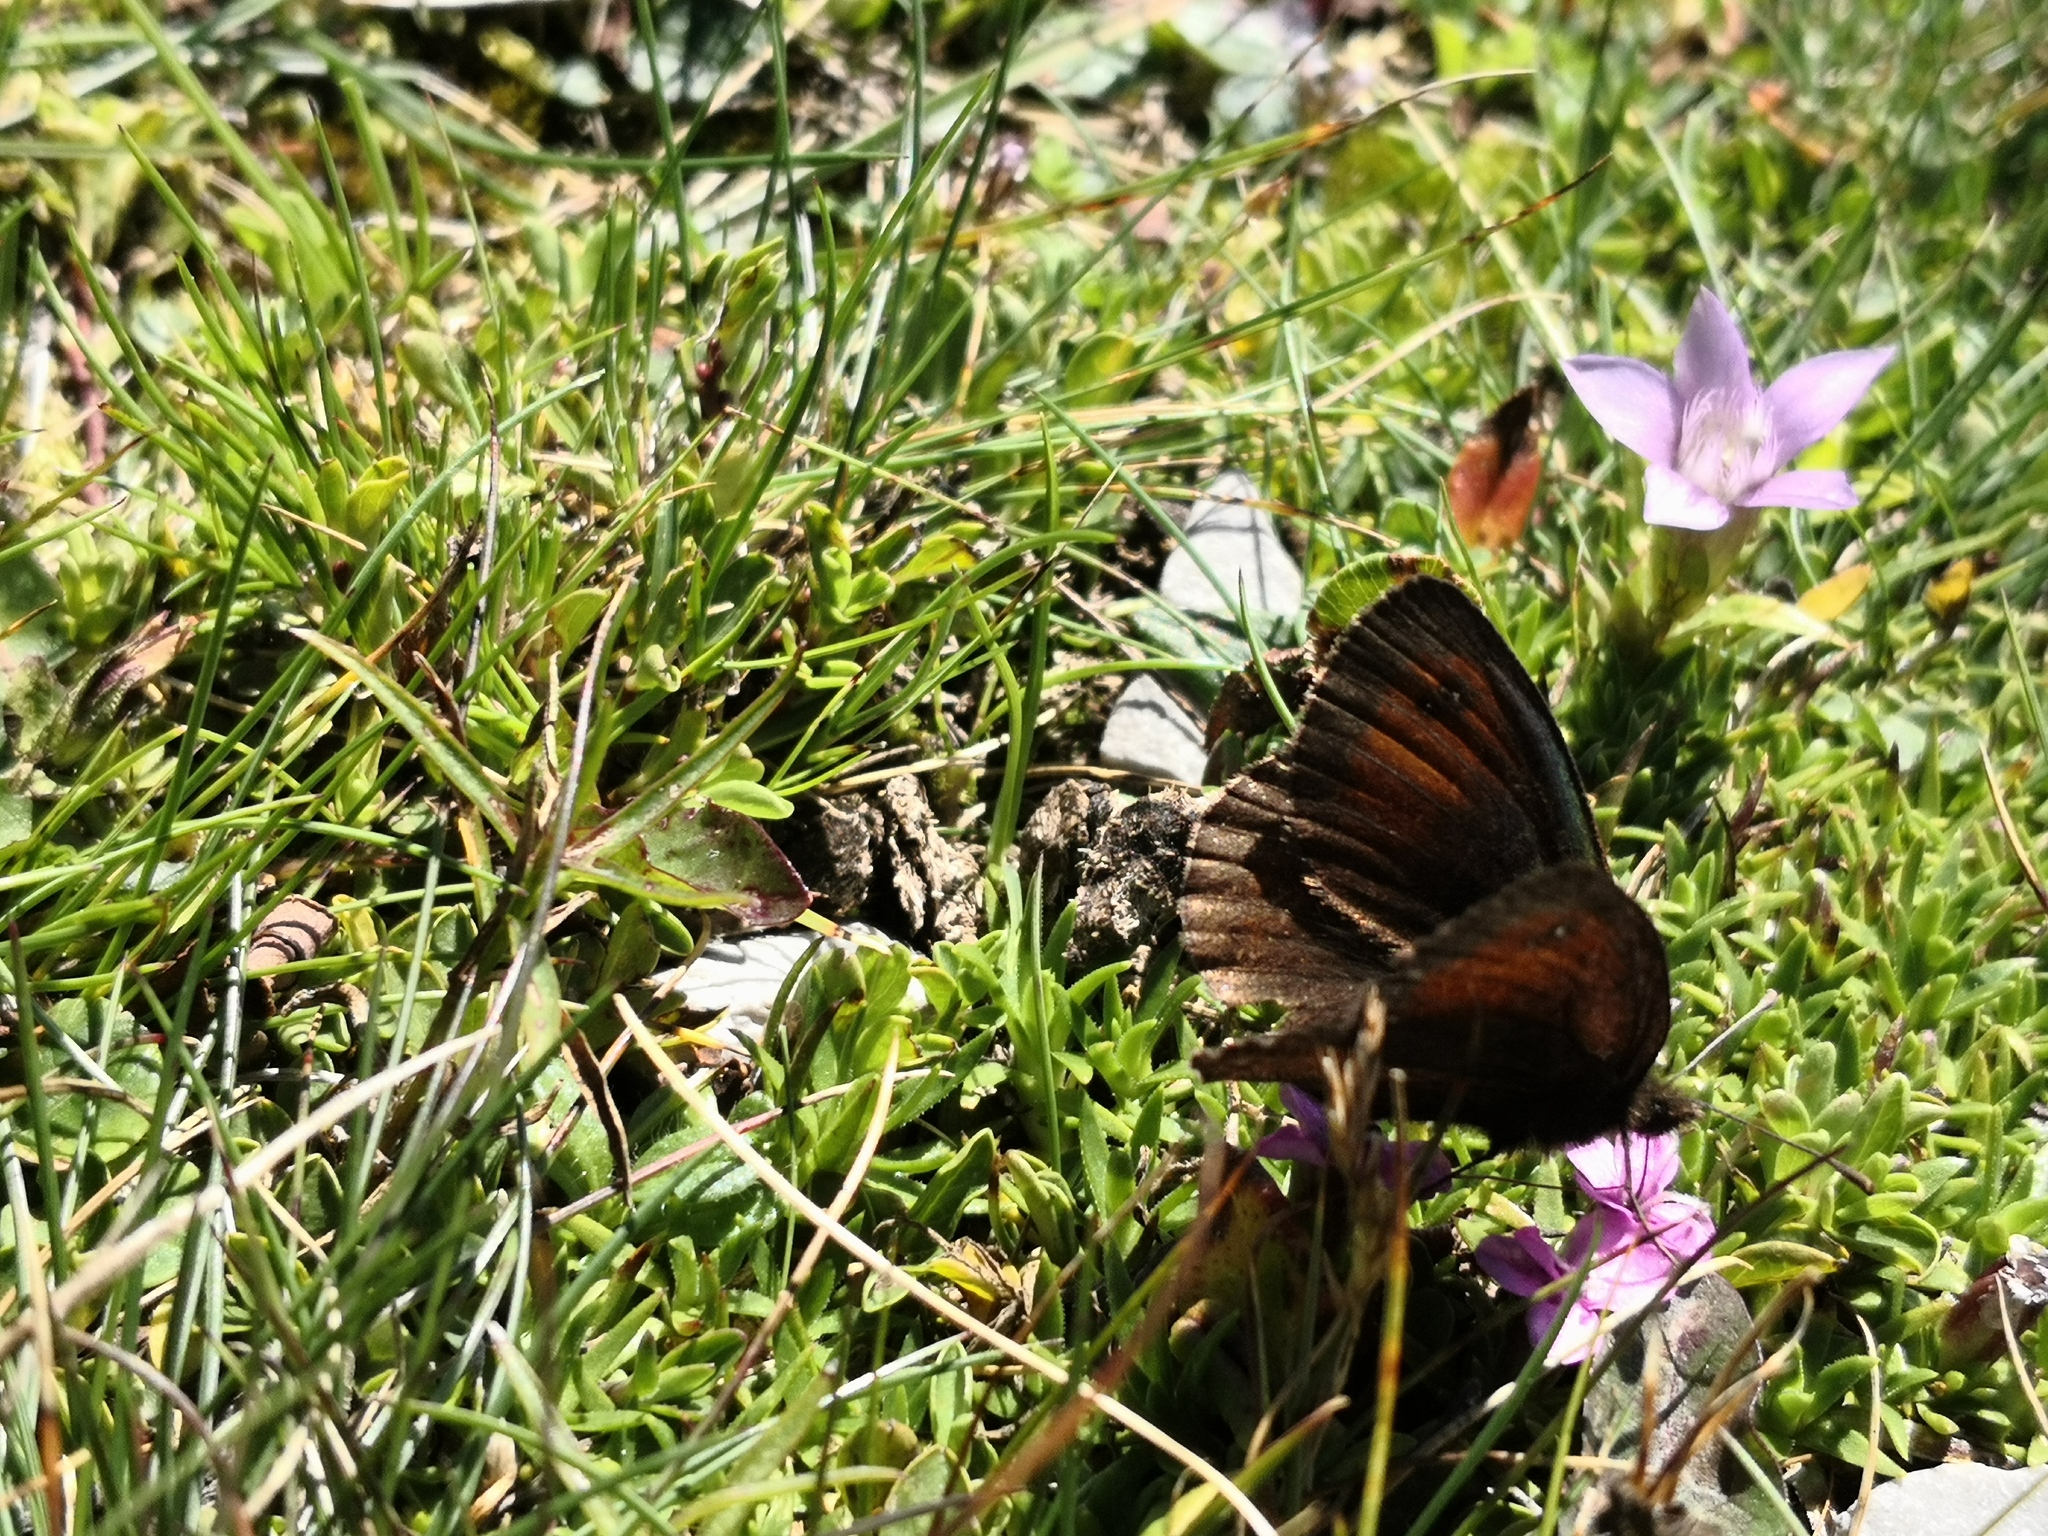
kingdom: Animalia
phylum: Arthropoda
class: Insecta
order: Lepidoptera
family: Nymphalidae
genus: Erebia
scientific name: Erebia cassioides
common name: Common brassy ringlet
